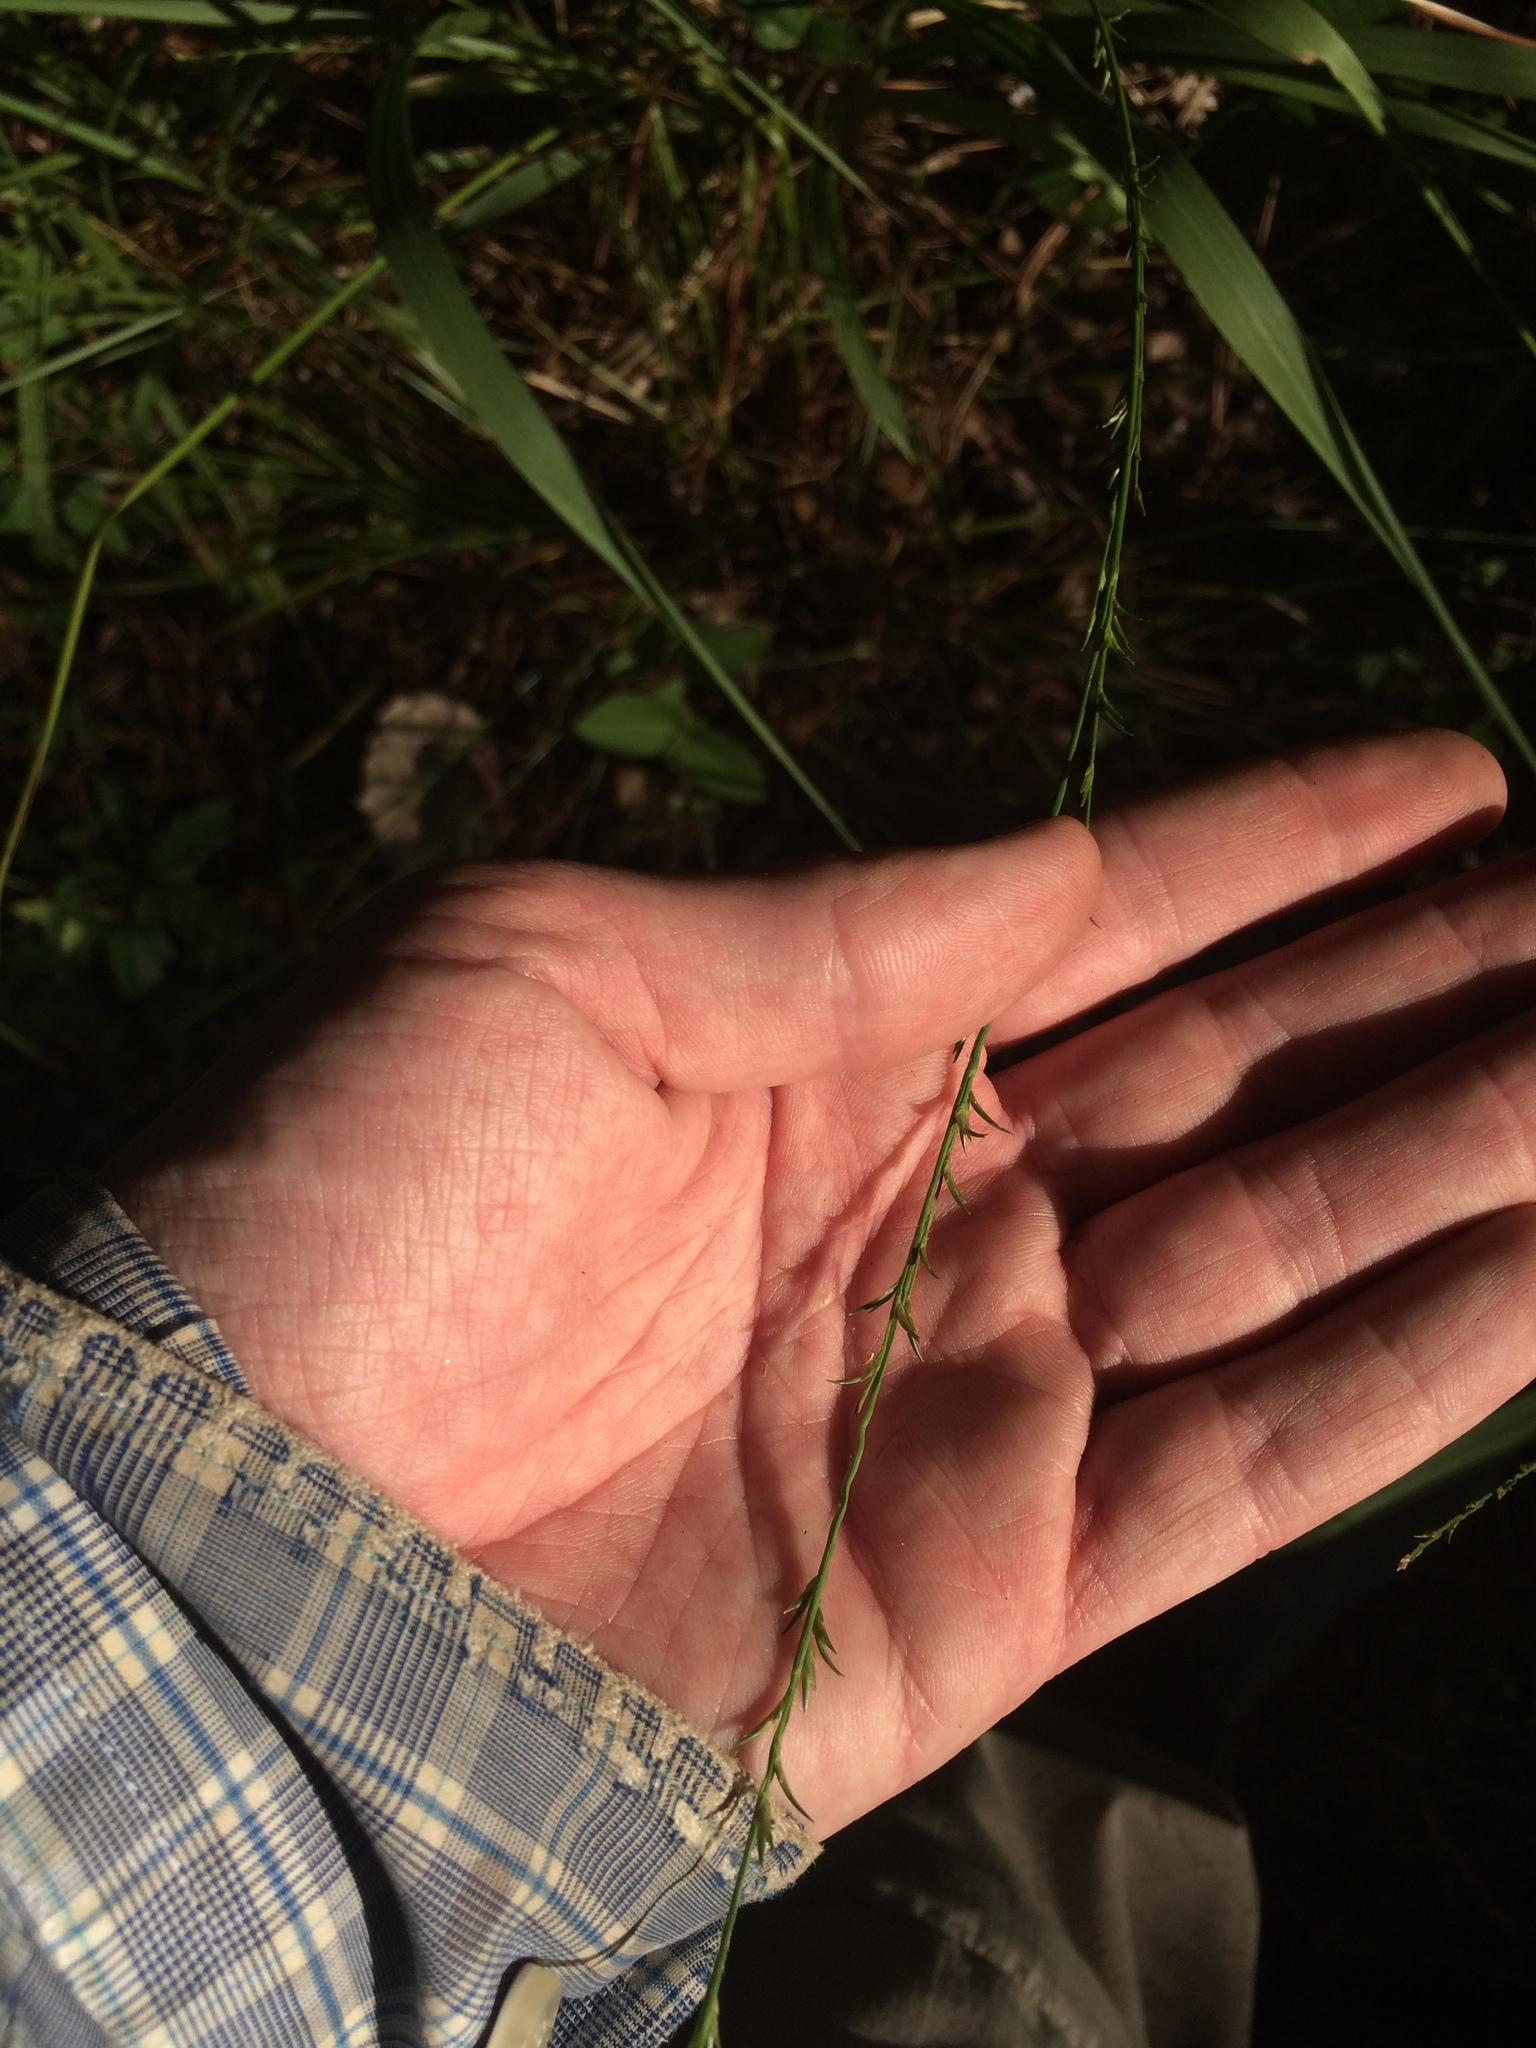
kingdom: Plantae
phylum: Tracheophyta
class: Liliopsida
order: Poales
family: Poaceae
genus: Chasmanthium
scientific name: Chasmanthium laxum
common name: Slender chasmanthium
